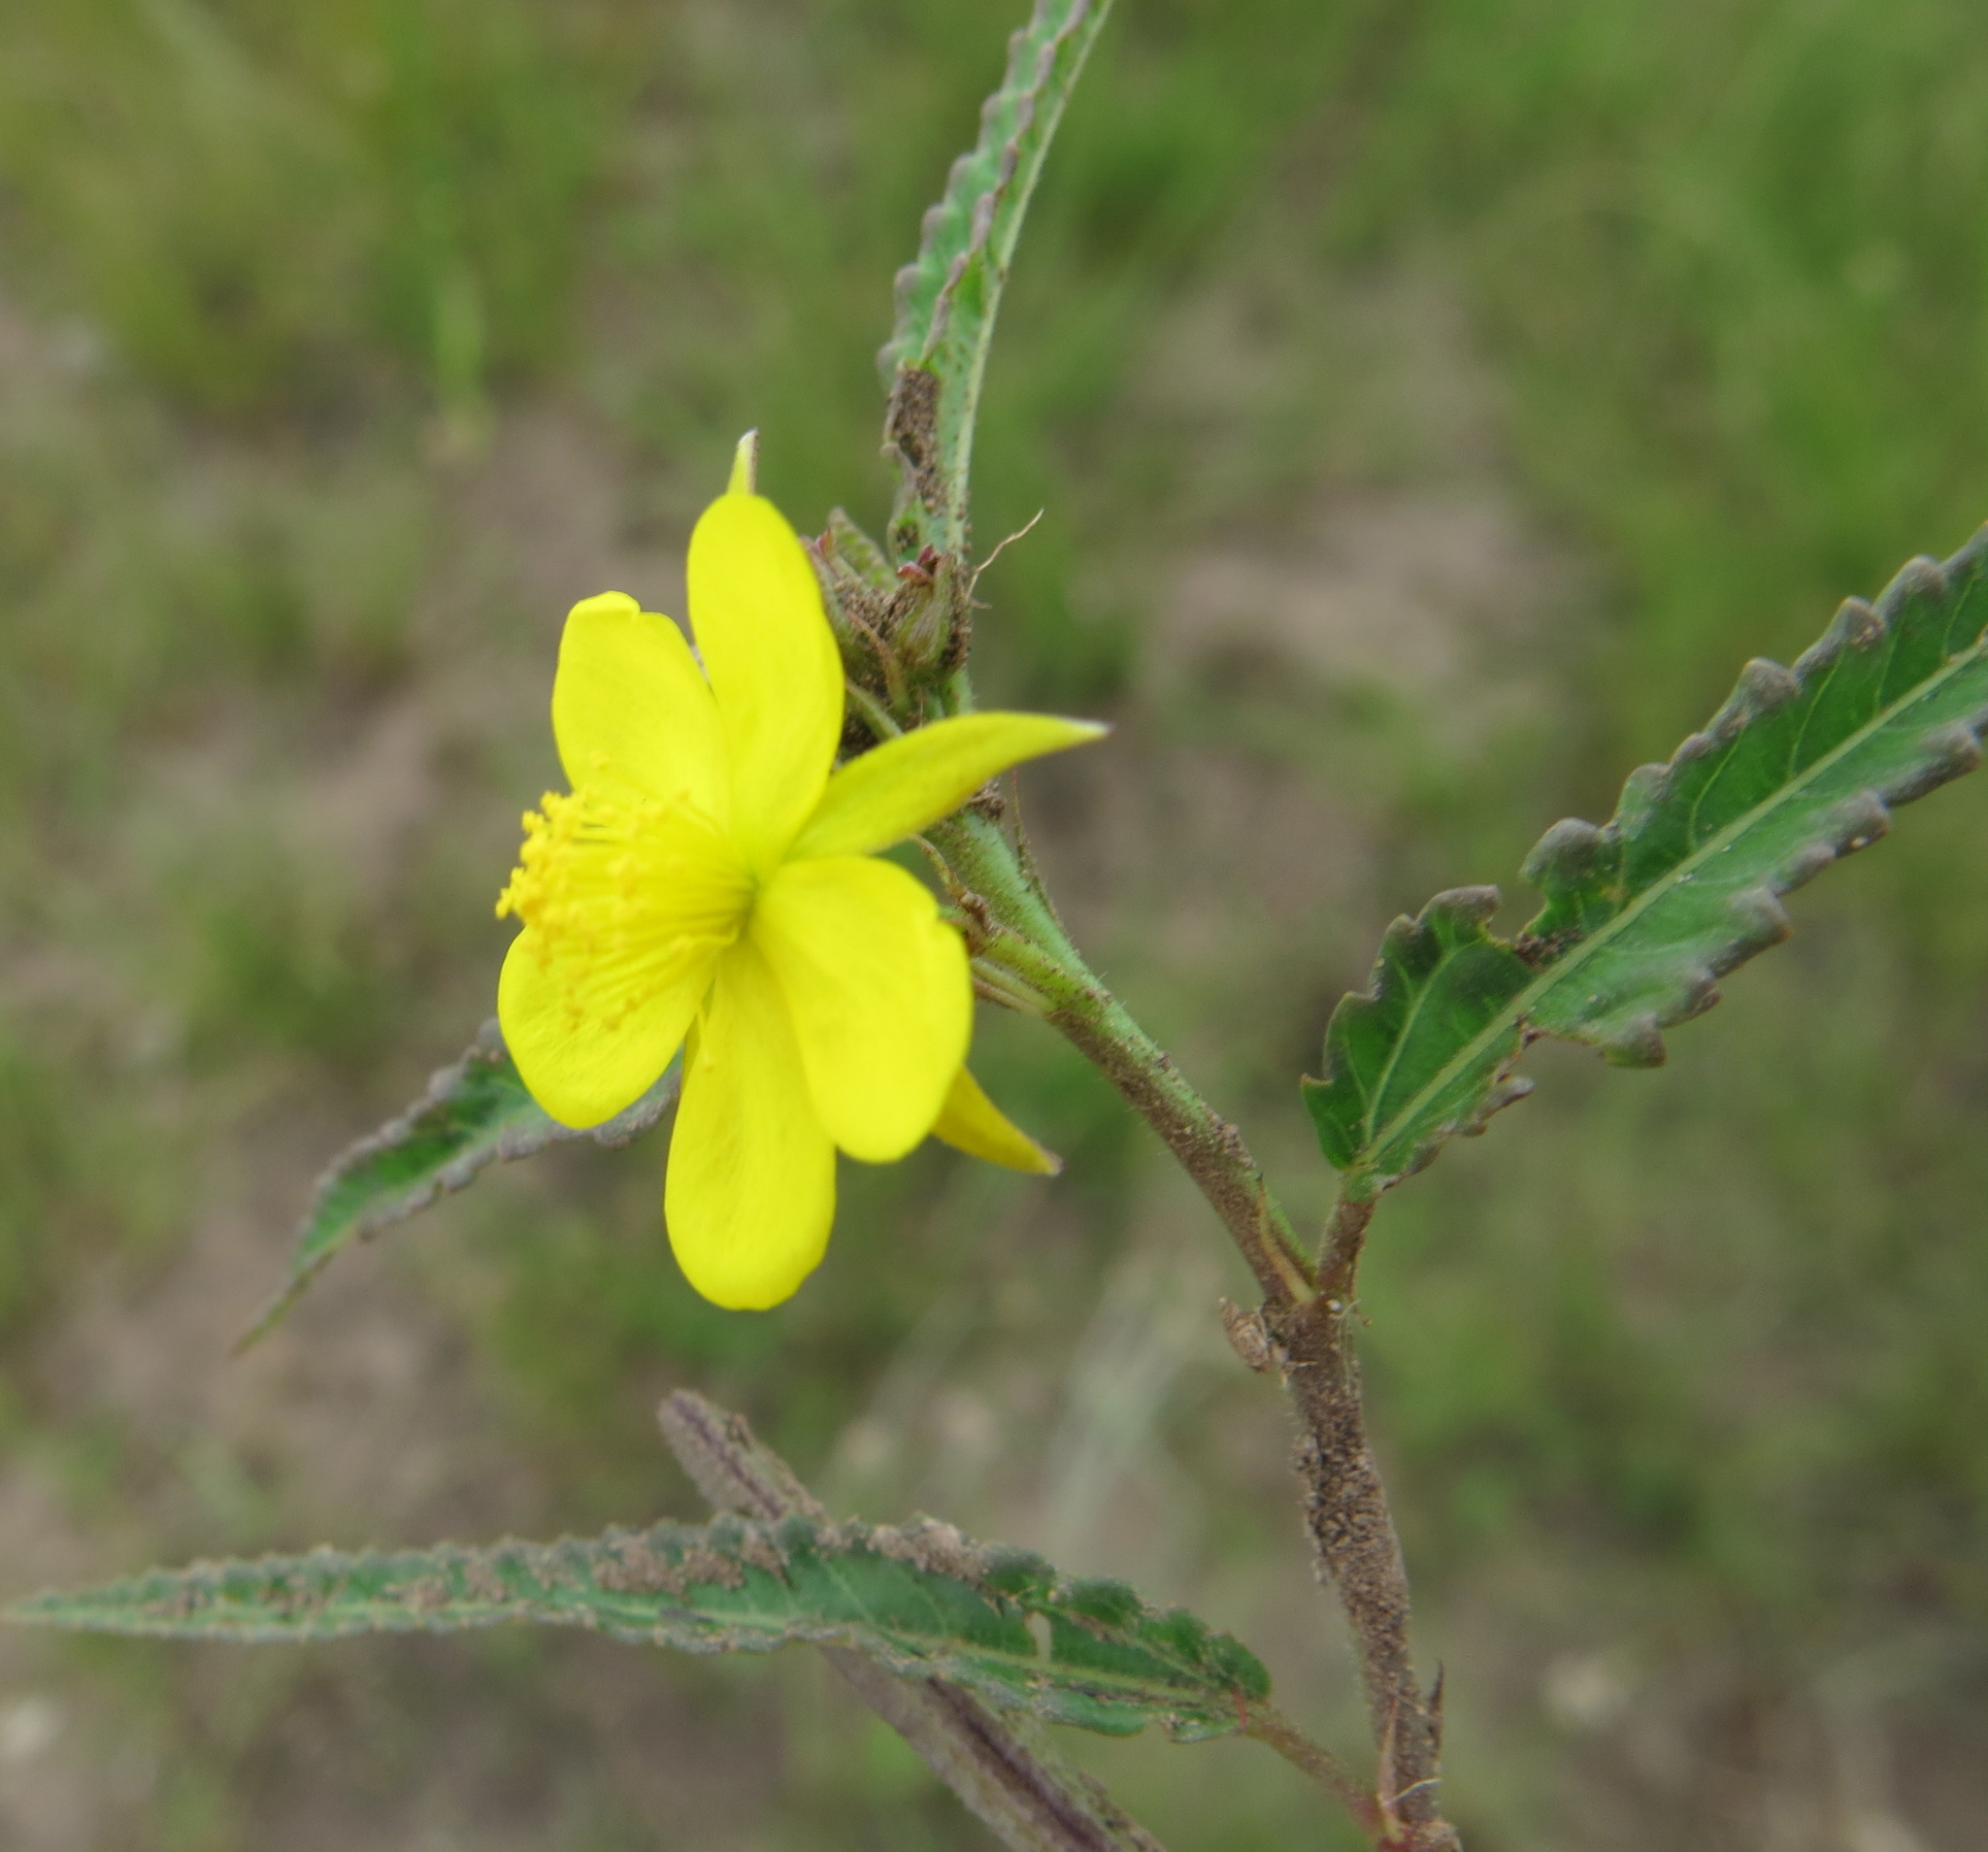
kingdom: Plantae
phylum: Tracheophyta
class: Magnoliopsida
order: Malvales
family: Malvaceae
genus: Corchorus
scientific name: Corchorus confusus
